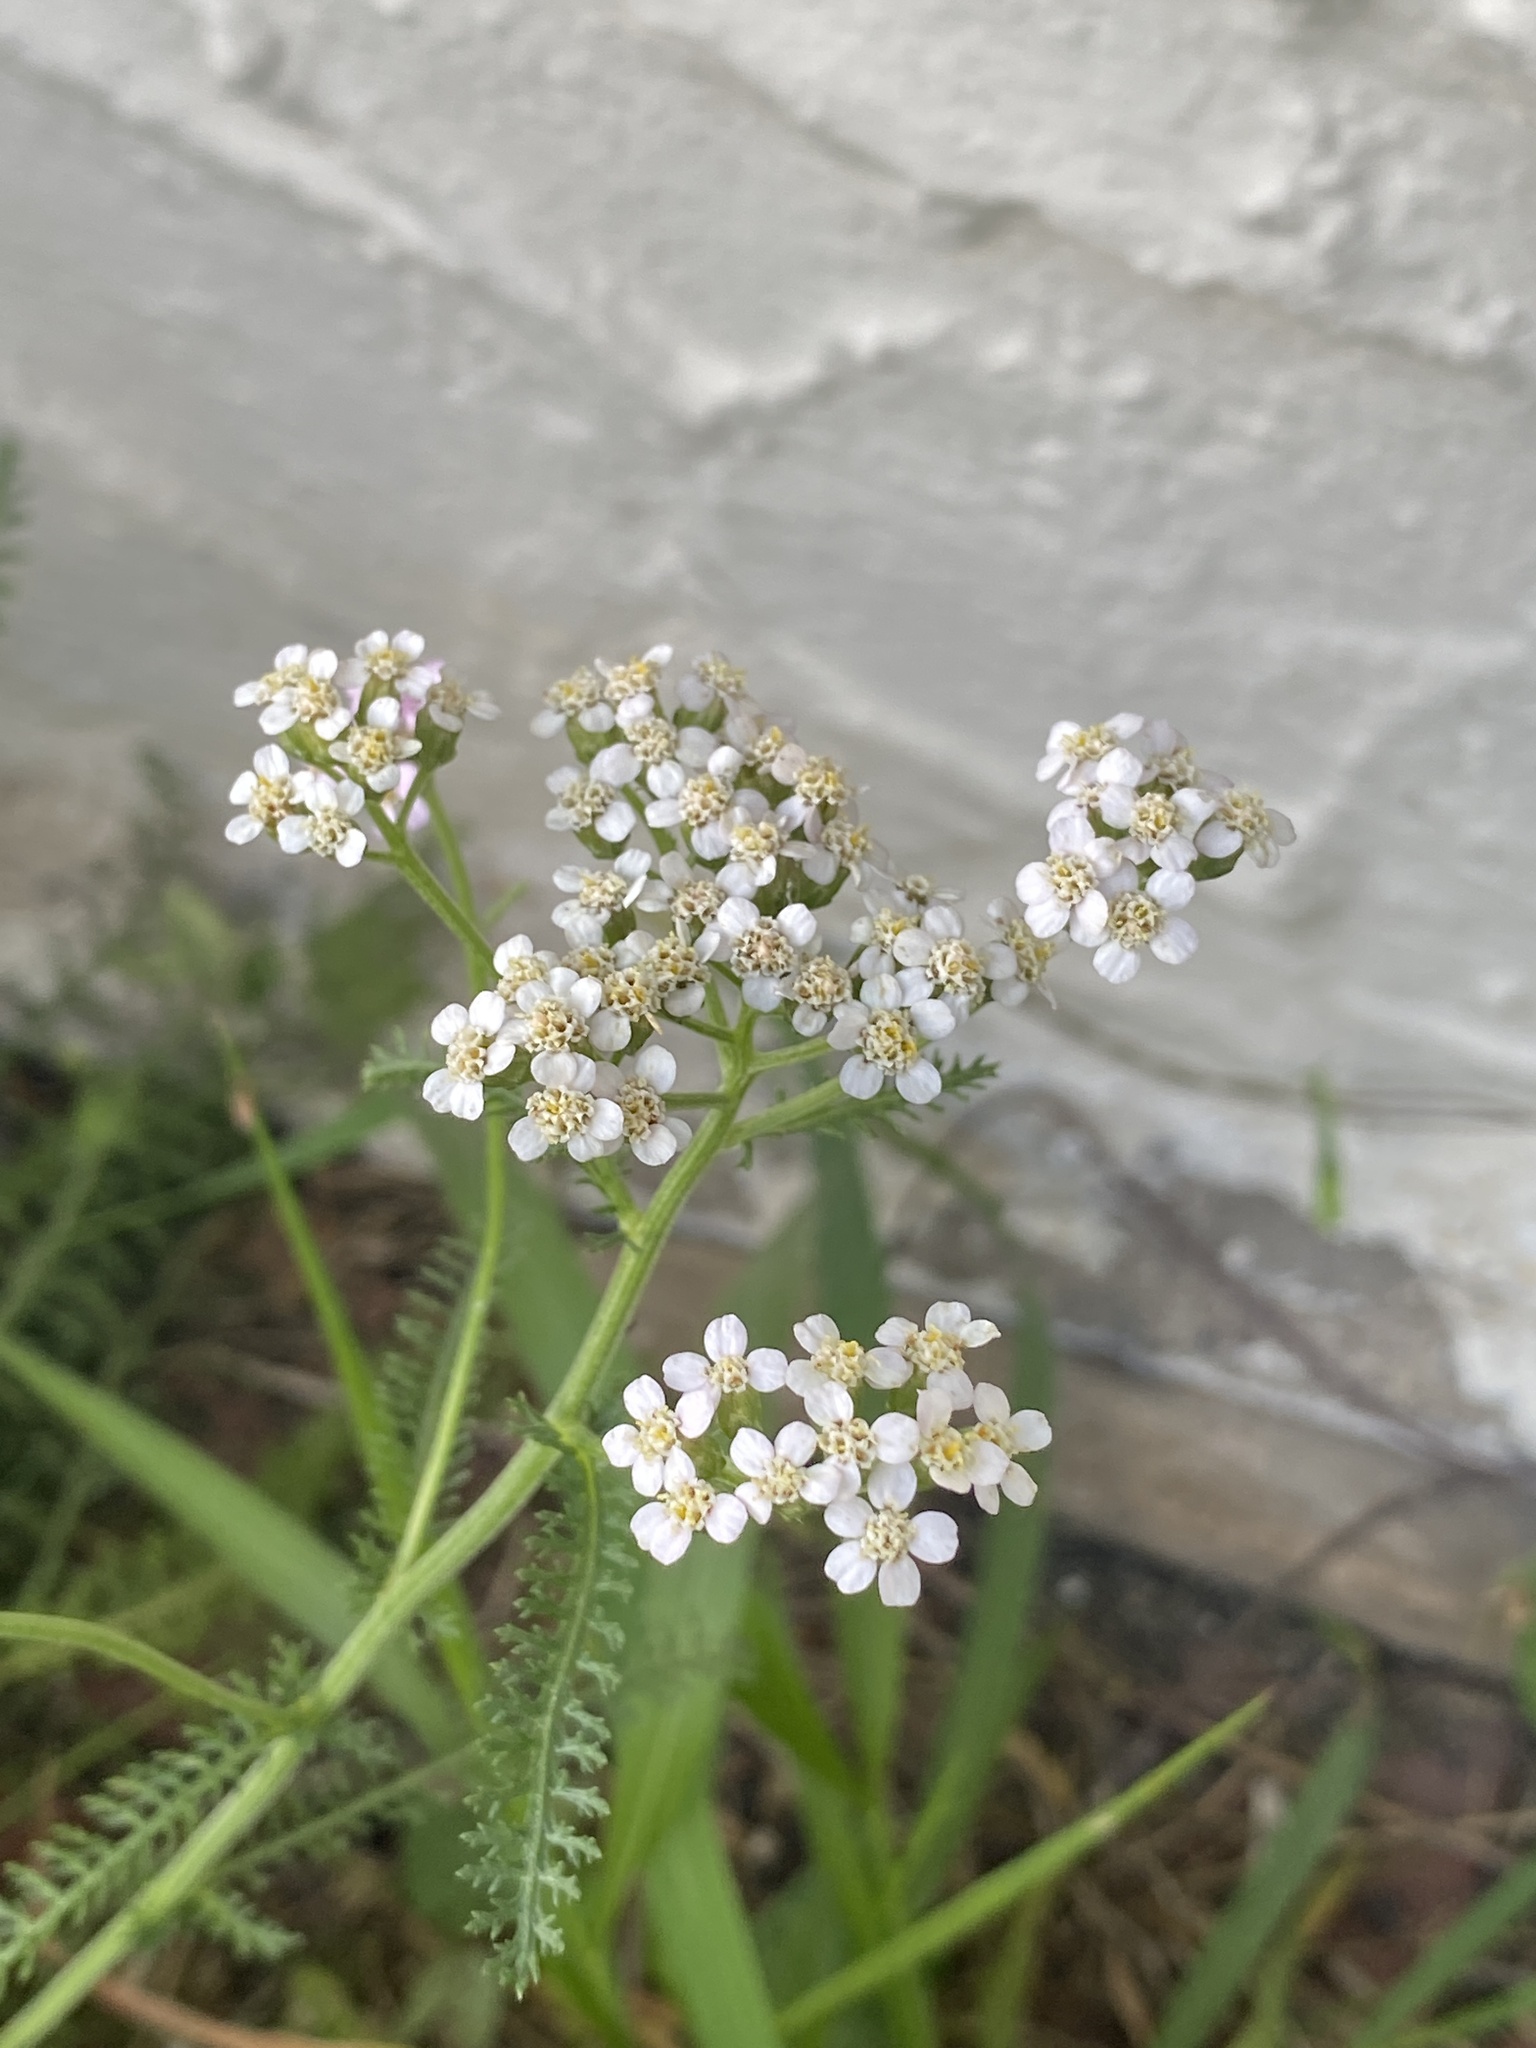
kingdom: Plantae
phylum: Tracheophyta
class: Magnoliopsida
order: Asterales
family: Asteraceae
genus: Achillea
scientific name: Achillea millefolium
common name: Yarrow
